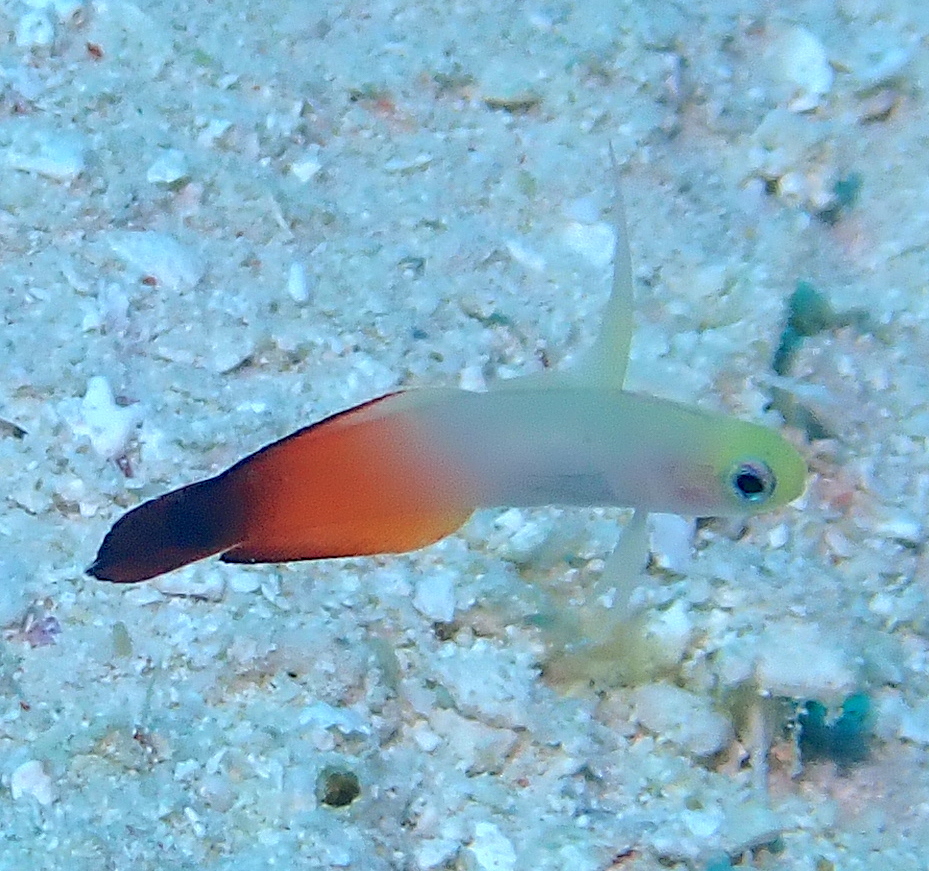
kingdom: Animalia
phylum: Chordata
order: Perciformes
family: Microdesmidae
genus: Nemateleotris
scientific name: Nemateleotris magnifica
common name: Fire goby
